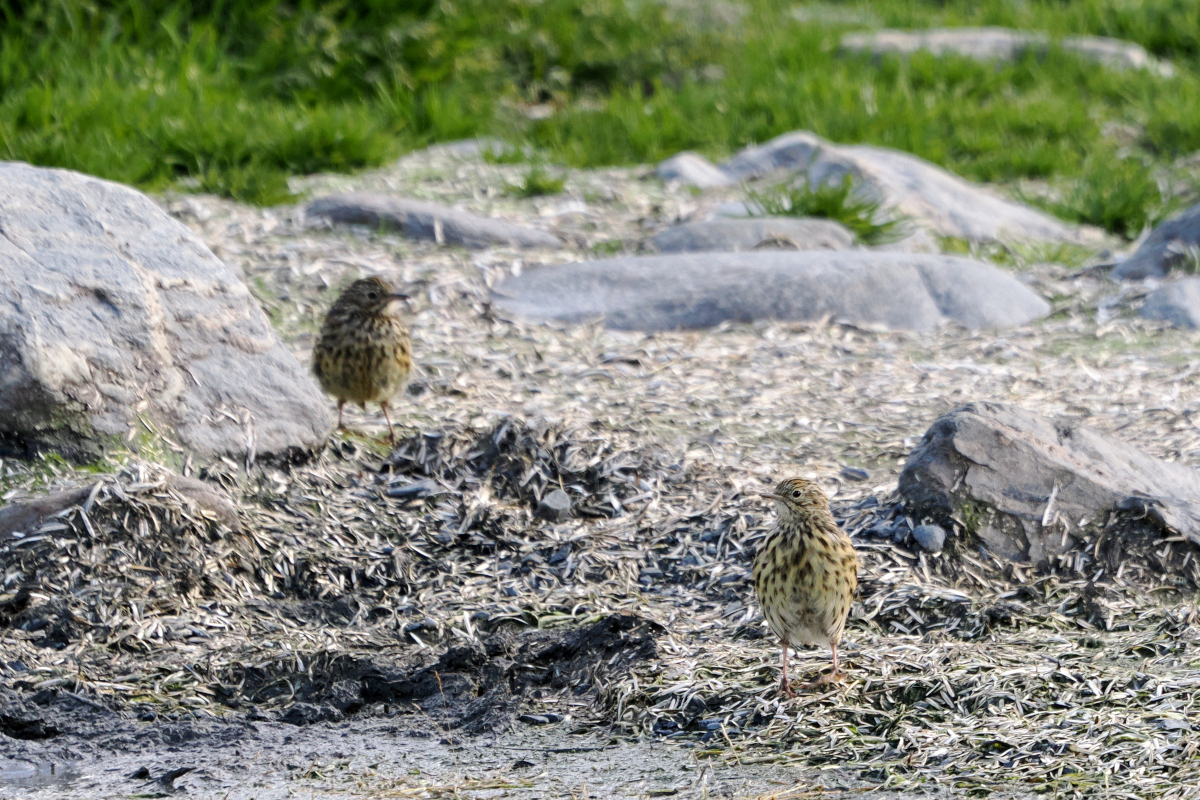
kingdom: Animalia
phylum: Chordata
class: Aves
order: Passeriformes
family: Motacillidae
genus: Anthus
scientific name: Anthus antarcticus
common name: South georgia pipit
